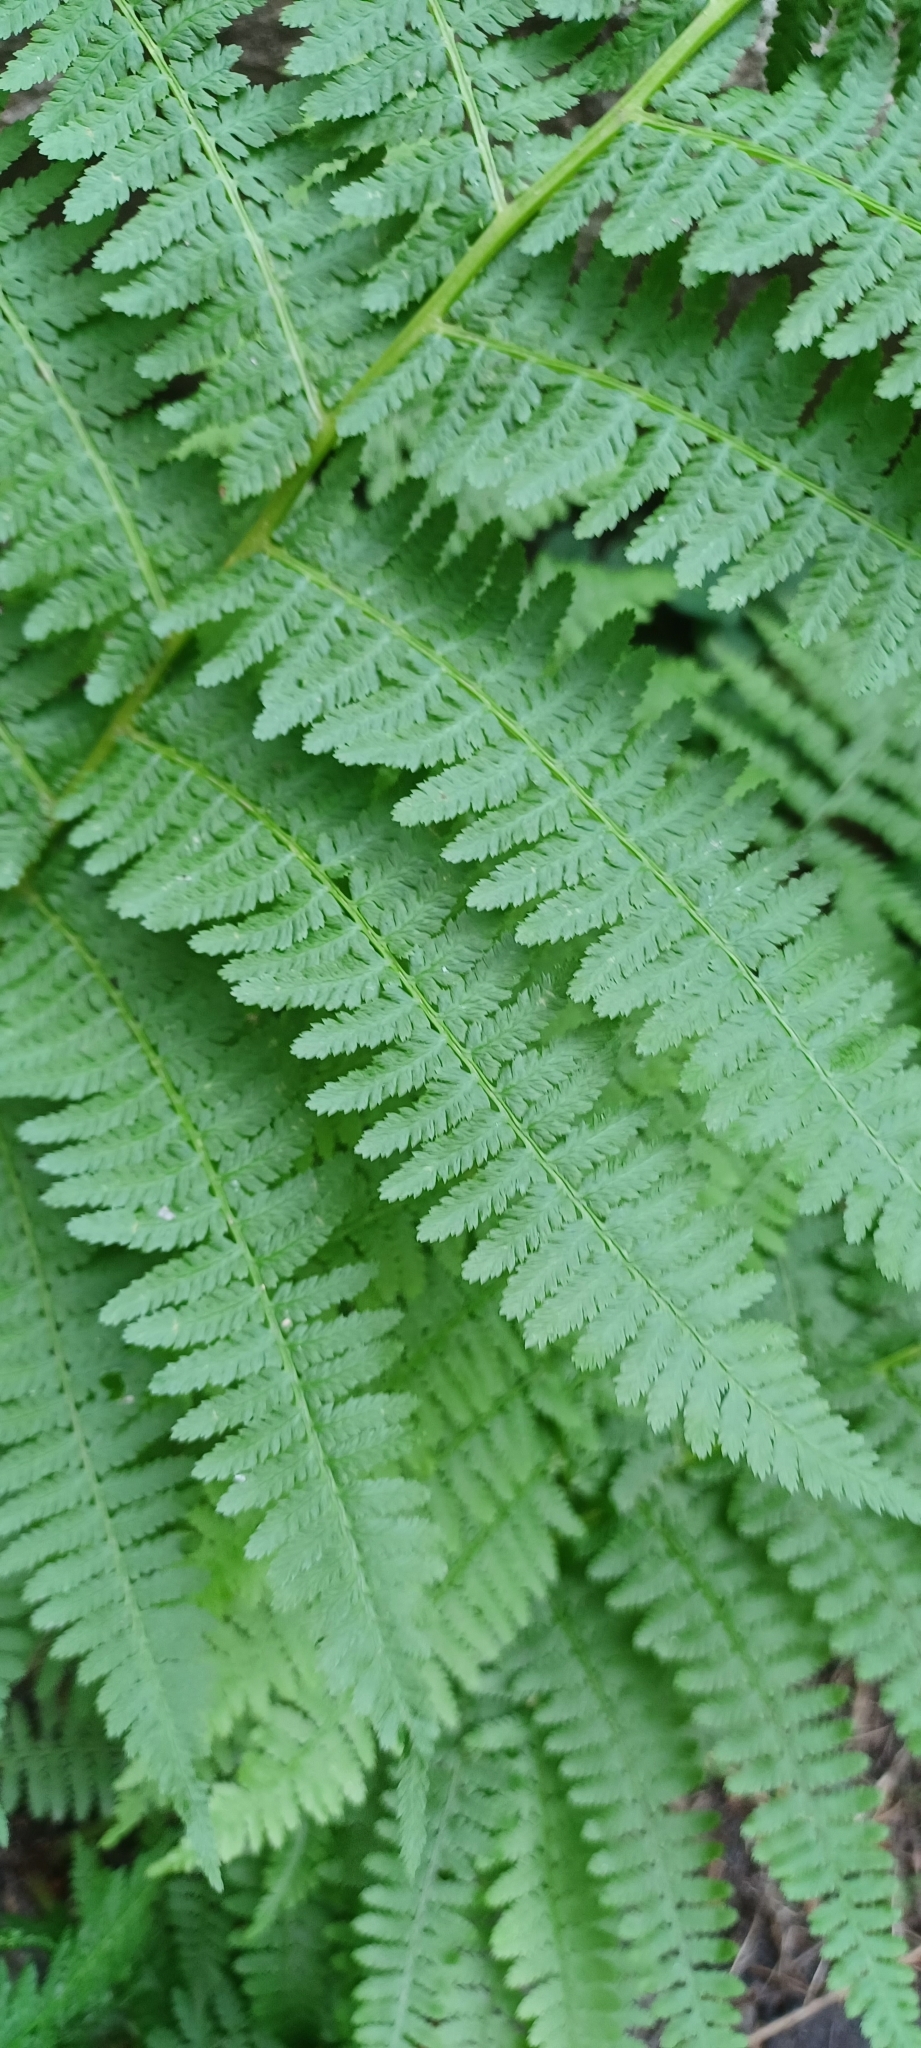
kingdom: Plantae
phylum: Tracheophyta
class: Polypodiopsida
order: Polypodiales
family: Athyriaceae
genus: Athyrium
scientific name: Athyrium cyclosorum
